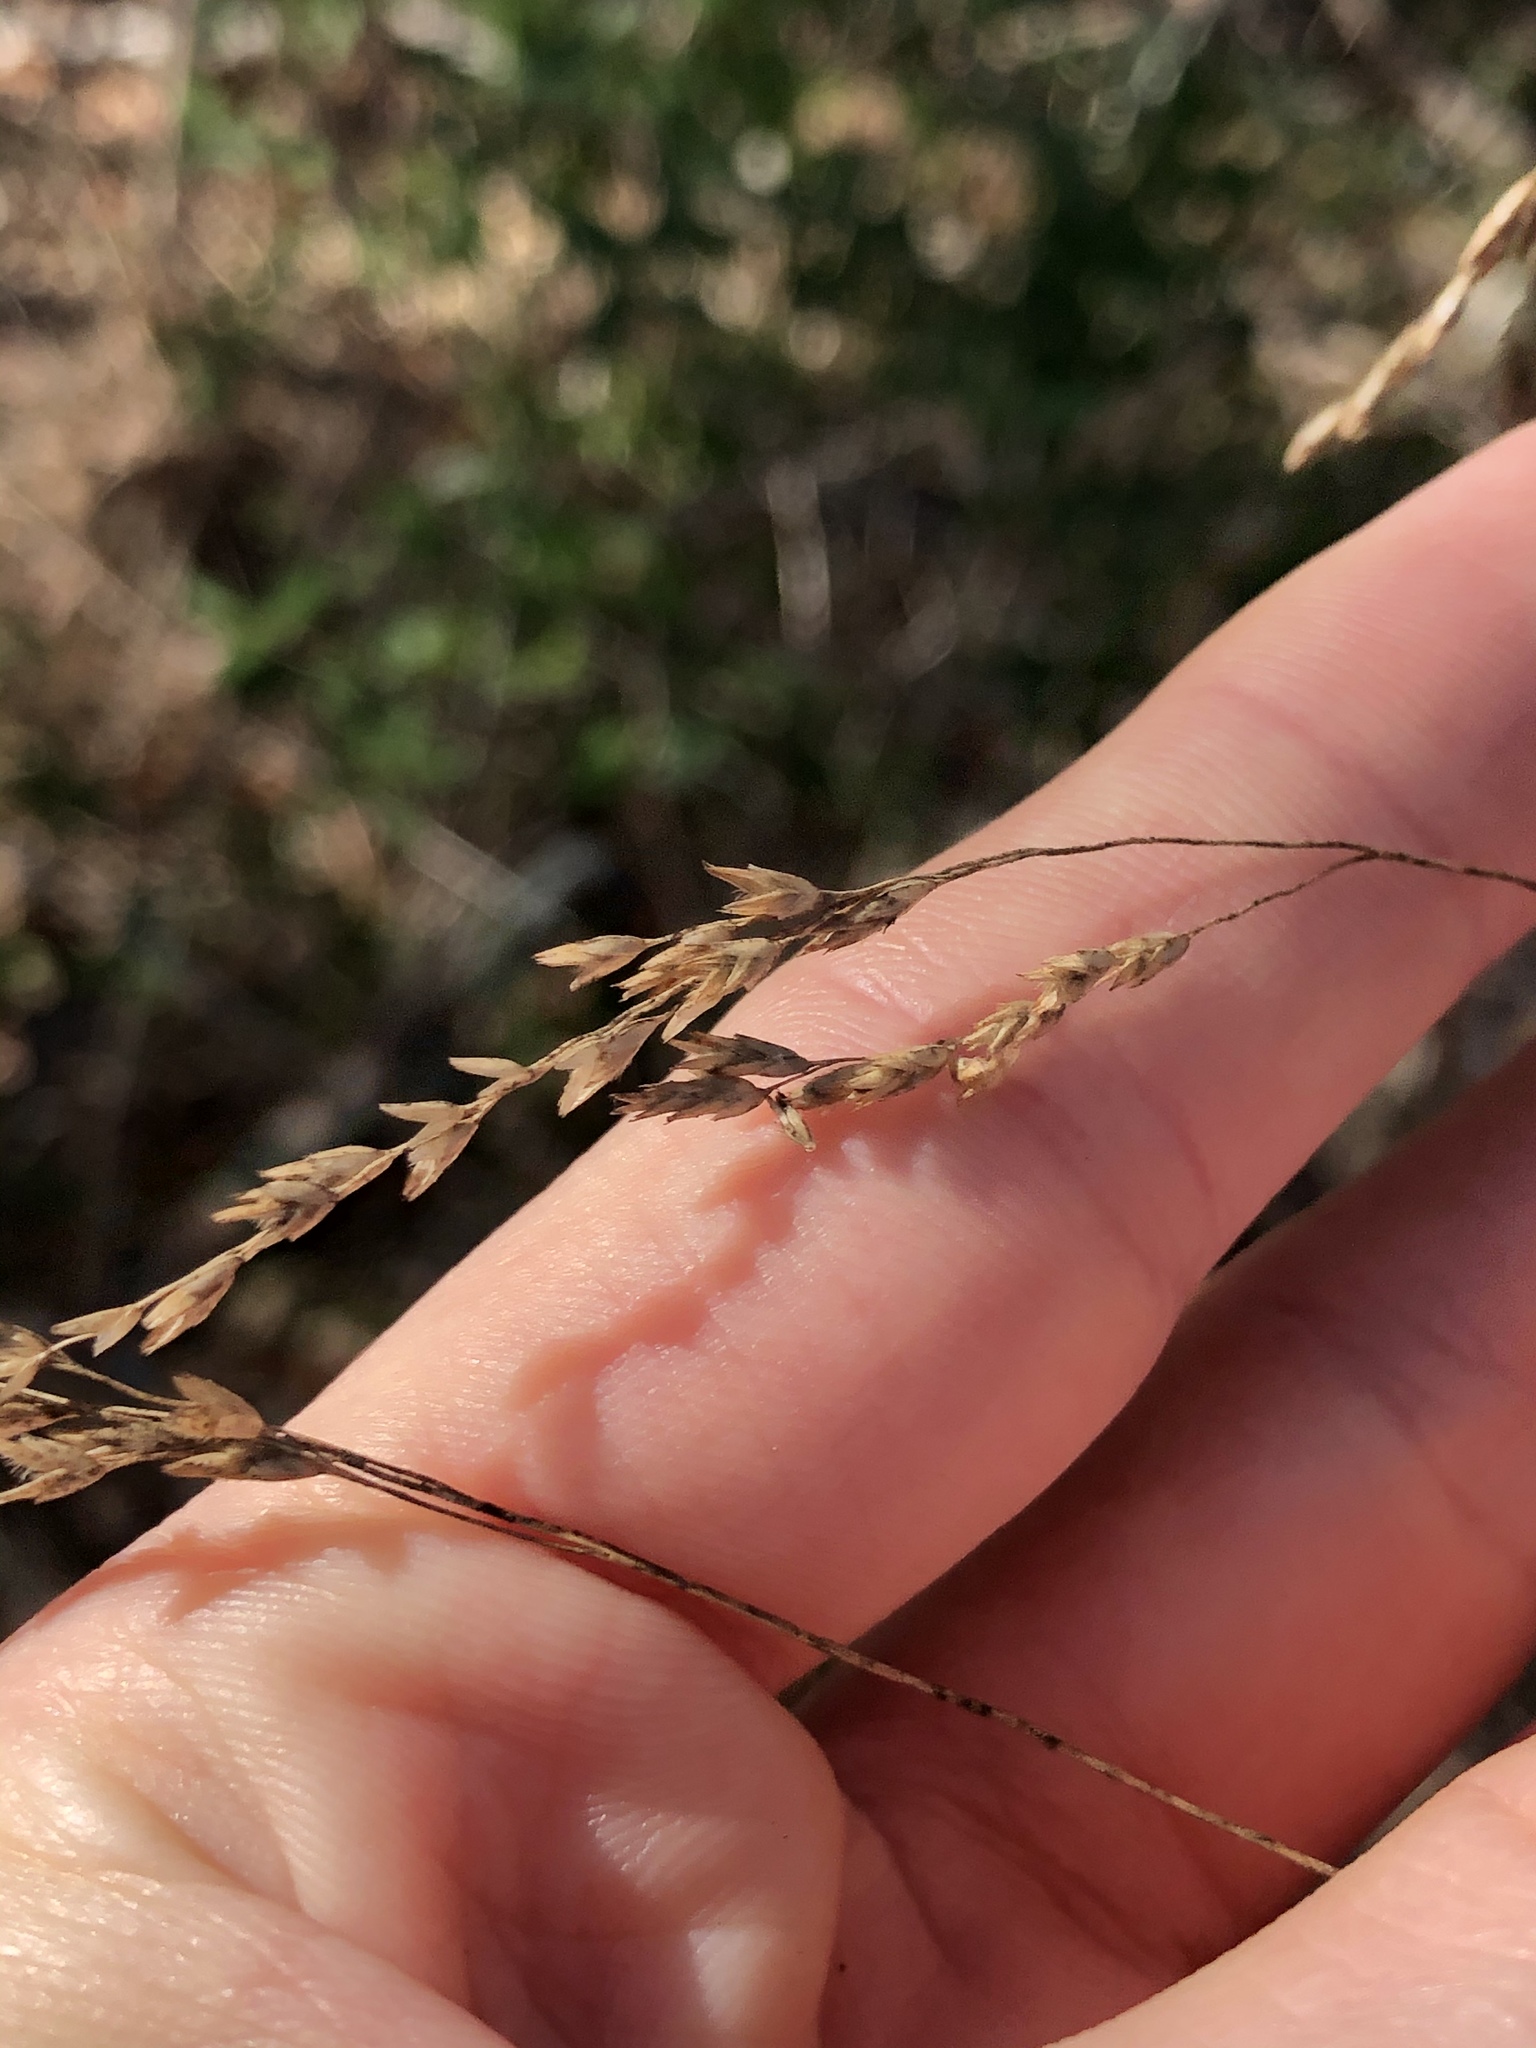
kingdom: Plantae
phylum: Tracheophyta
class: Liliopsida
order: Poales
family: Poaceae
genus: Tridens
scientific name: Tridens flavus
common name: Purpletop
